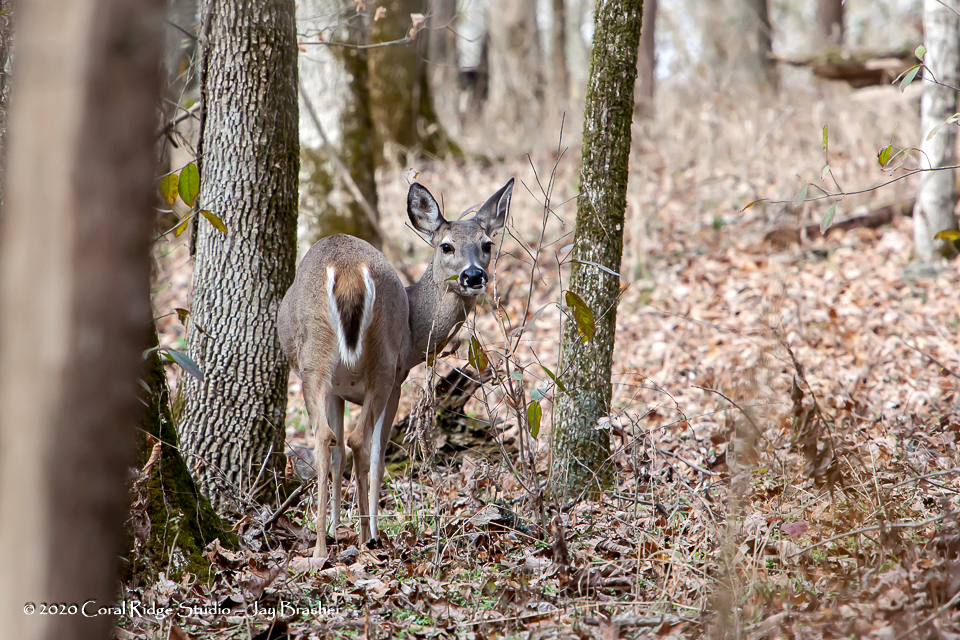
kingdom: Animalia
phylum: Chordata
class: Mammalia
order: Artiodactyla
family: Cervidae
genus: Odocoileus
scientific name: Odocoileus virginianus
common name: White-tailed deer
